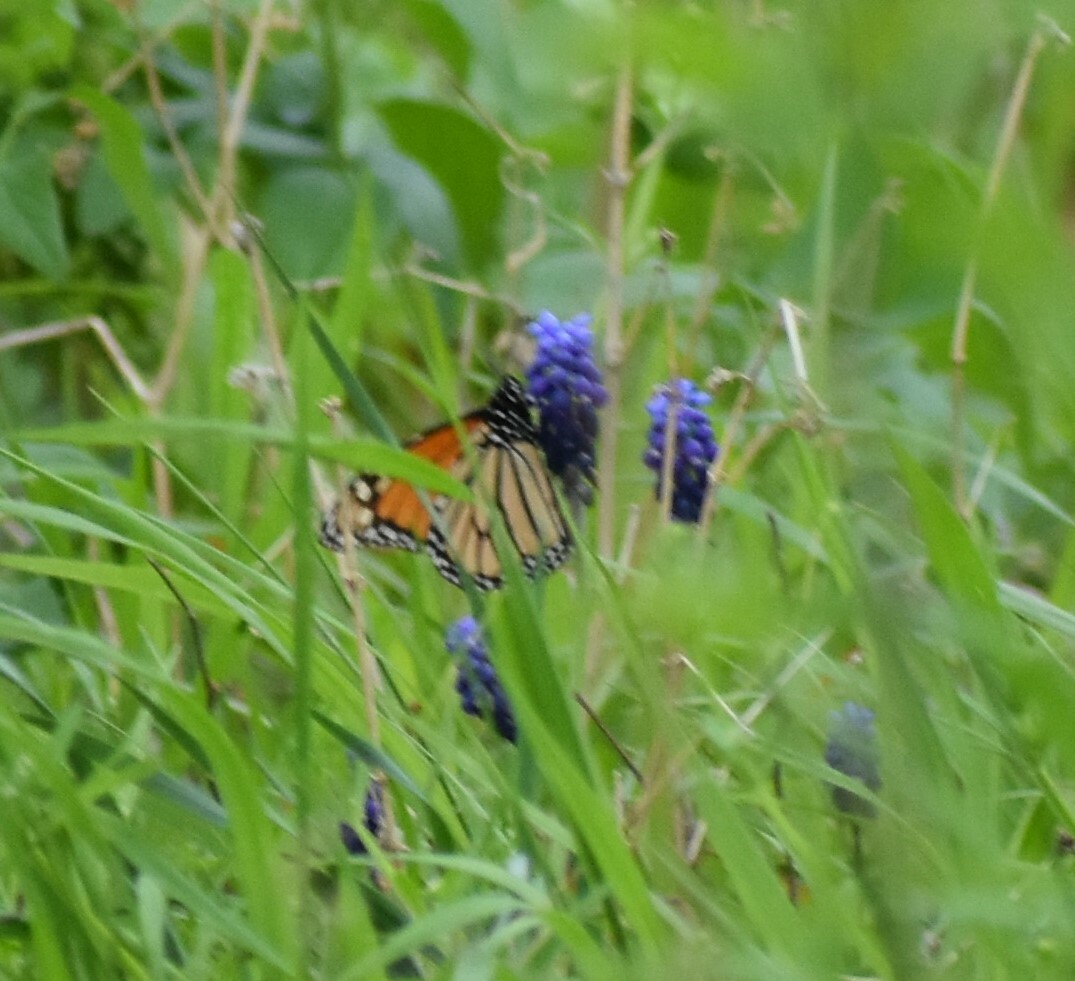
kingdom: Animalia
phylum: Arthropoda
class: Insecta
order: Lepidoptera
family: Nymphalidae
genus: Danaus
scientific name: Danaus plexippus
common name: Monarch
